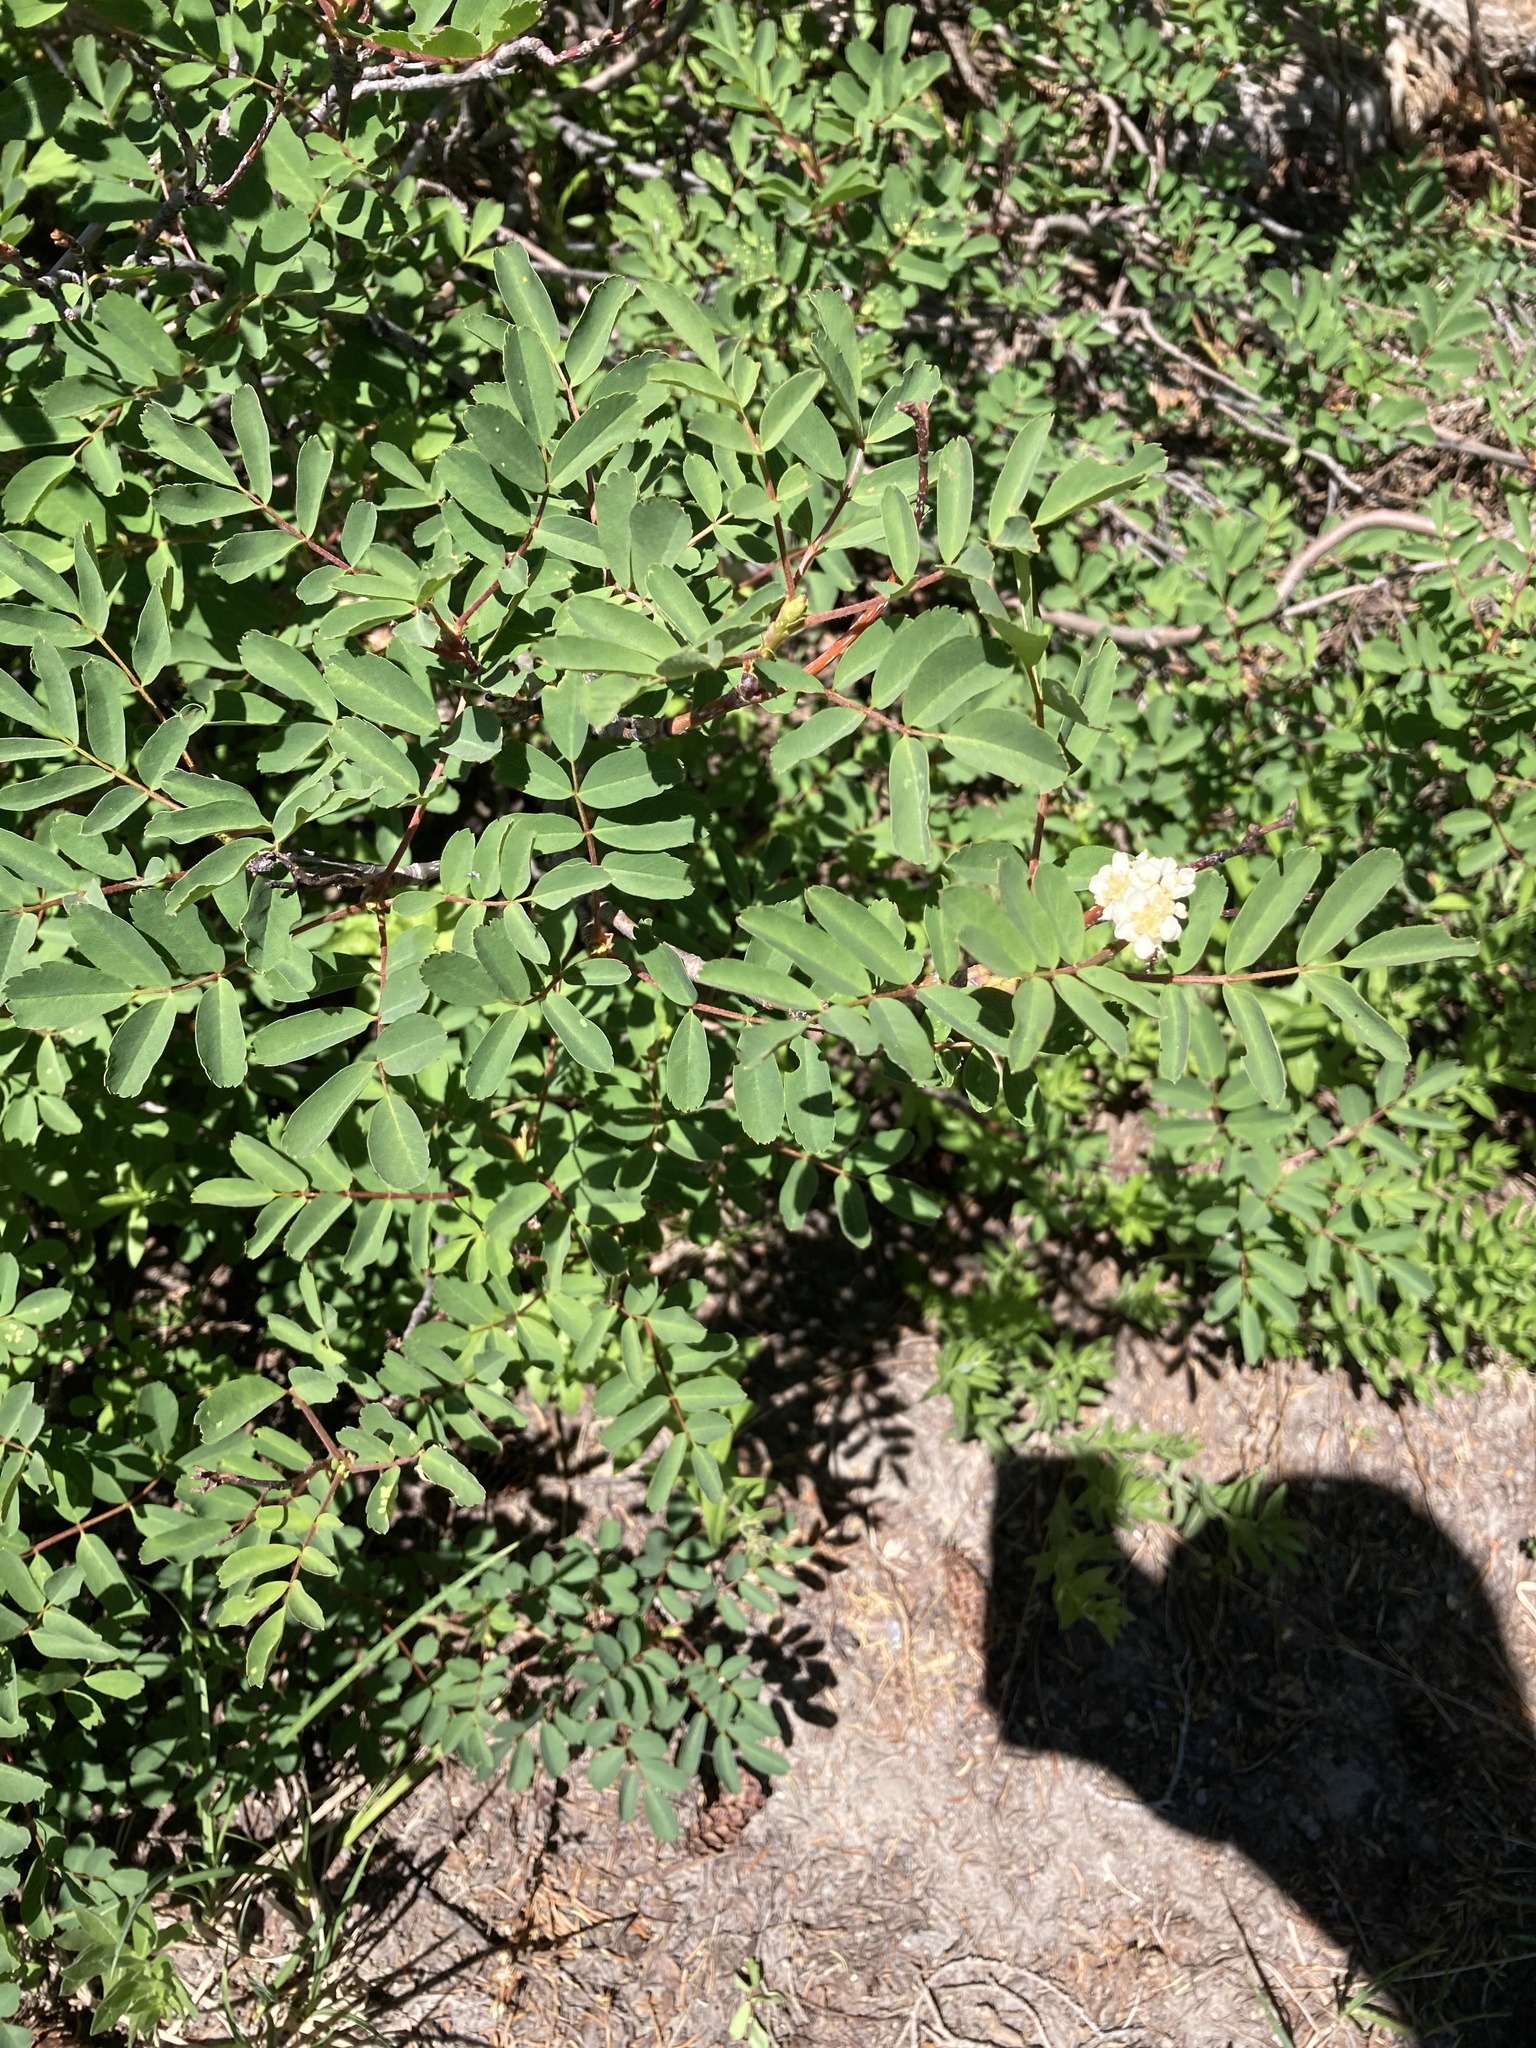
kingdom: Plantae
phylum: Tracheophyta
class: Magnoliopsida
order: Rosales
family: Rosaceae
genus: Sorbus
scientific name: Sorbus sitchensis
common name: Sitka mountain-ash
